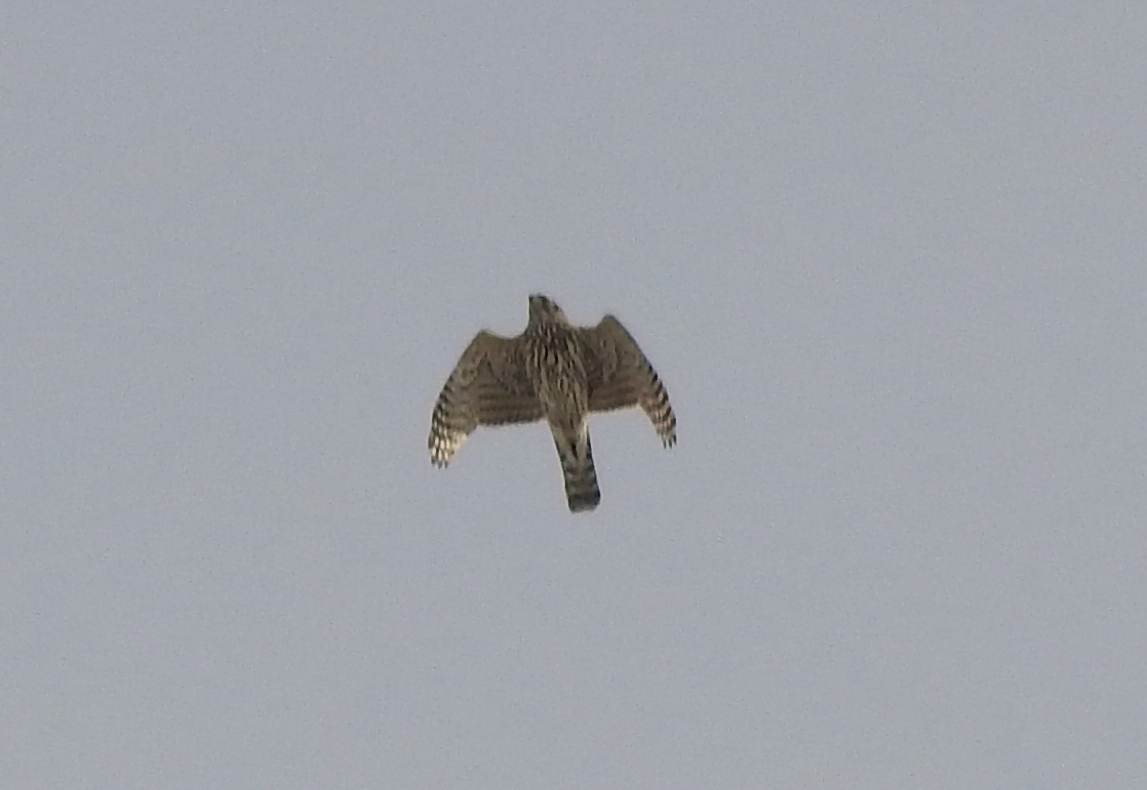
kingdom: Animalia
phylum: Chordata
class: Aves
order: Accipitriformes
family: Accipitridae
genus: Accipiter
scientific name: Accipiter gentilis
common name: Northern goshawk
